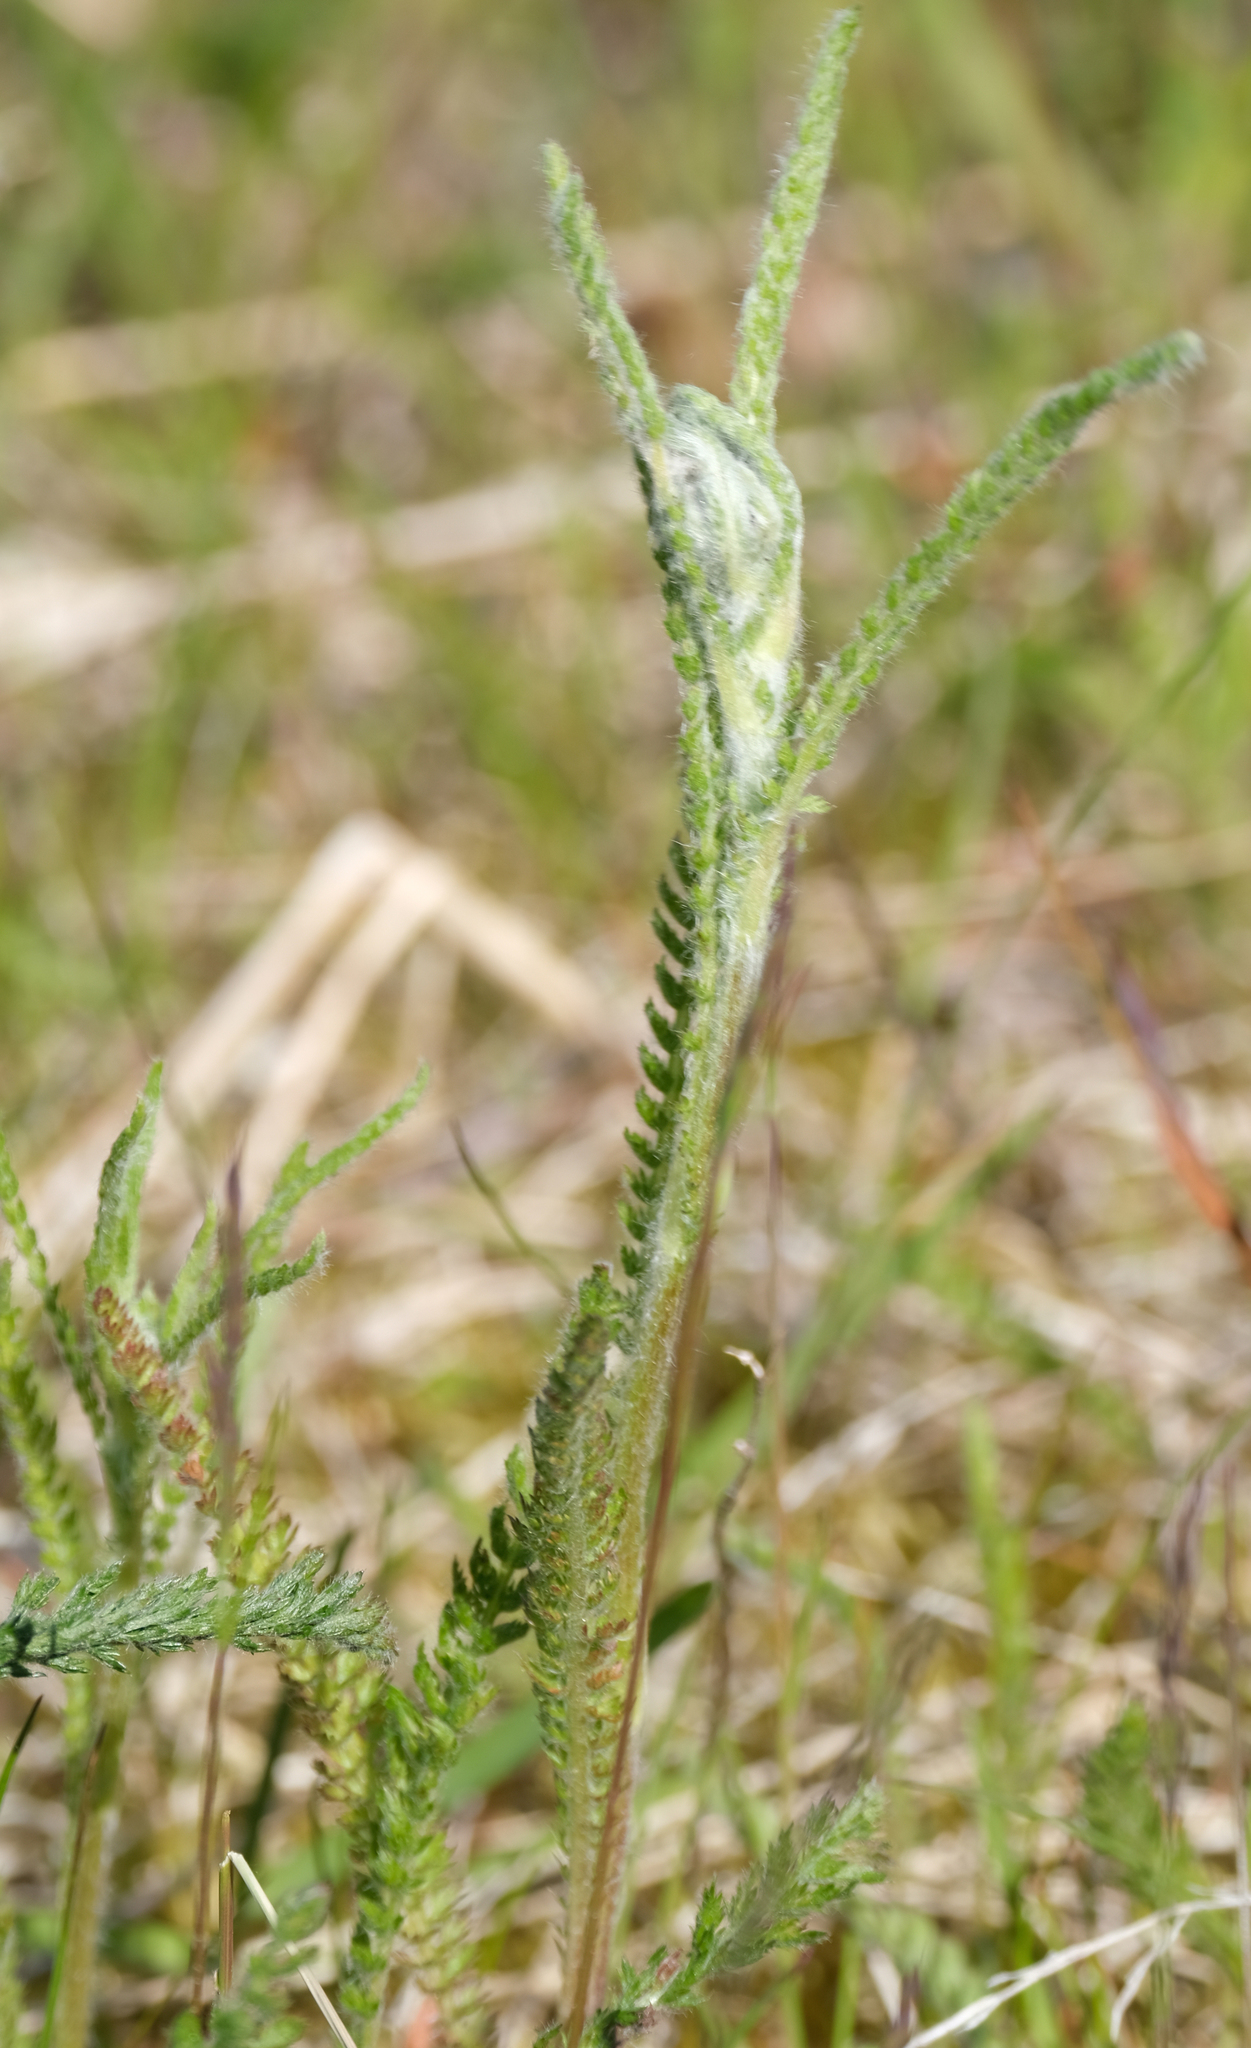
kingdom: Plantae
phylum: Tracheophyta
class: Magnoliopsida
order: Asterales
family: Asteraceae
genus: Achillea
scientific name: Achillea millefolium
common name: Yarrow
